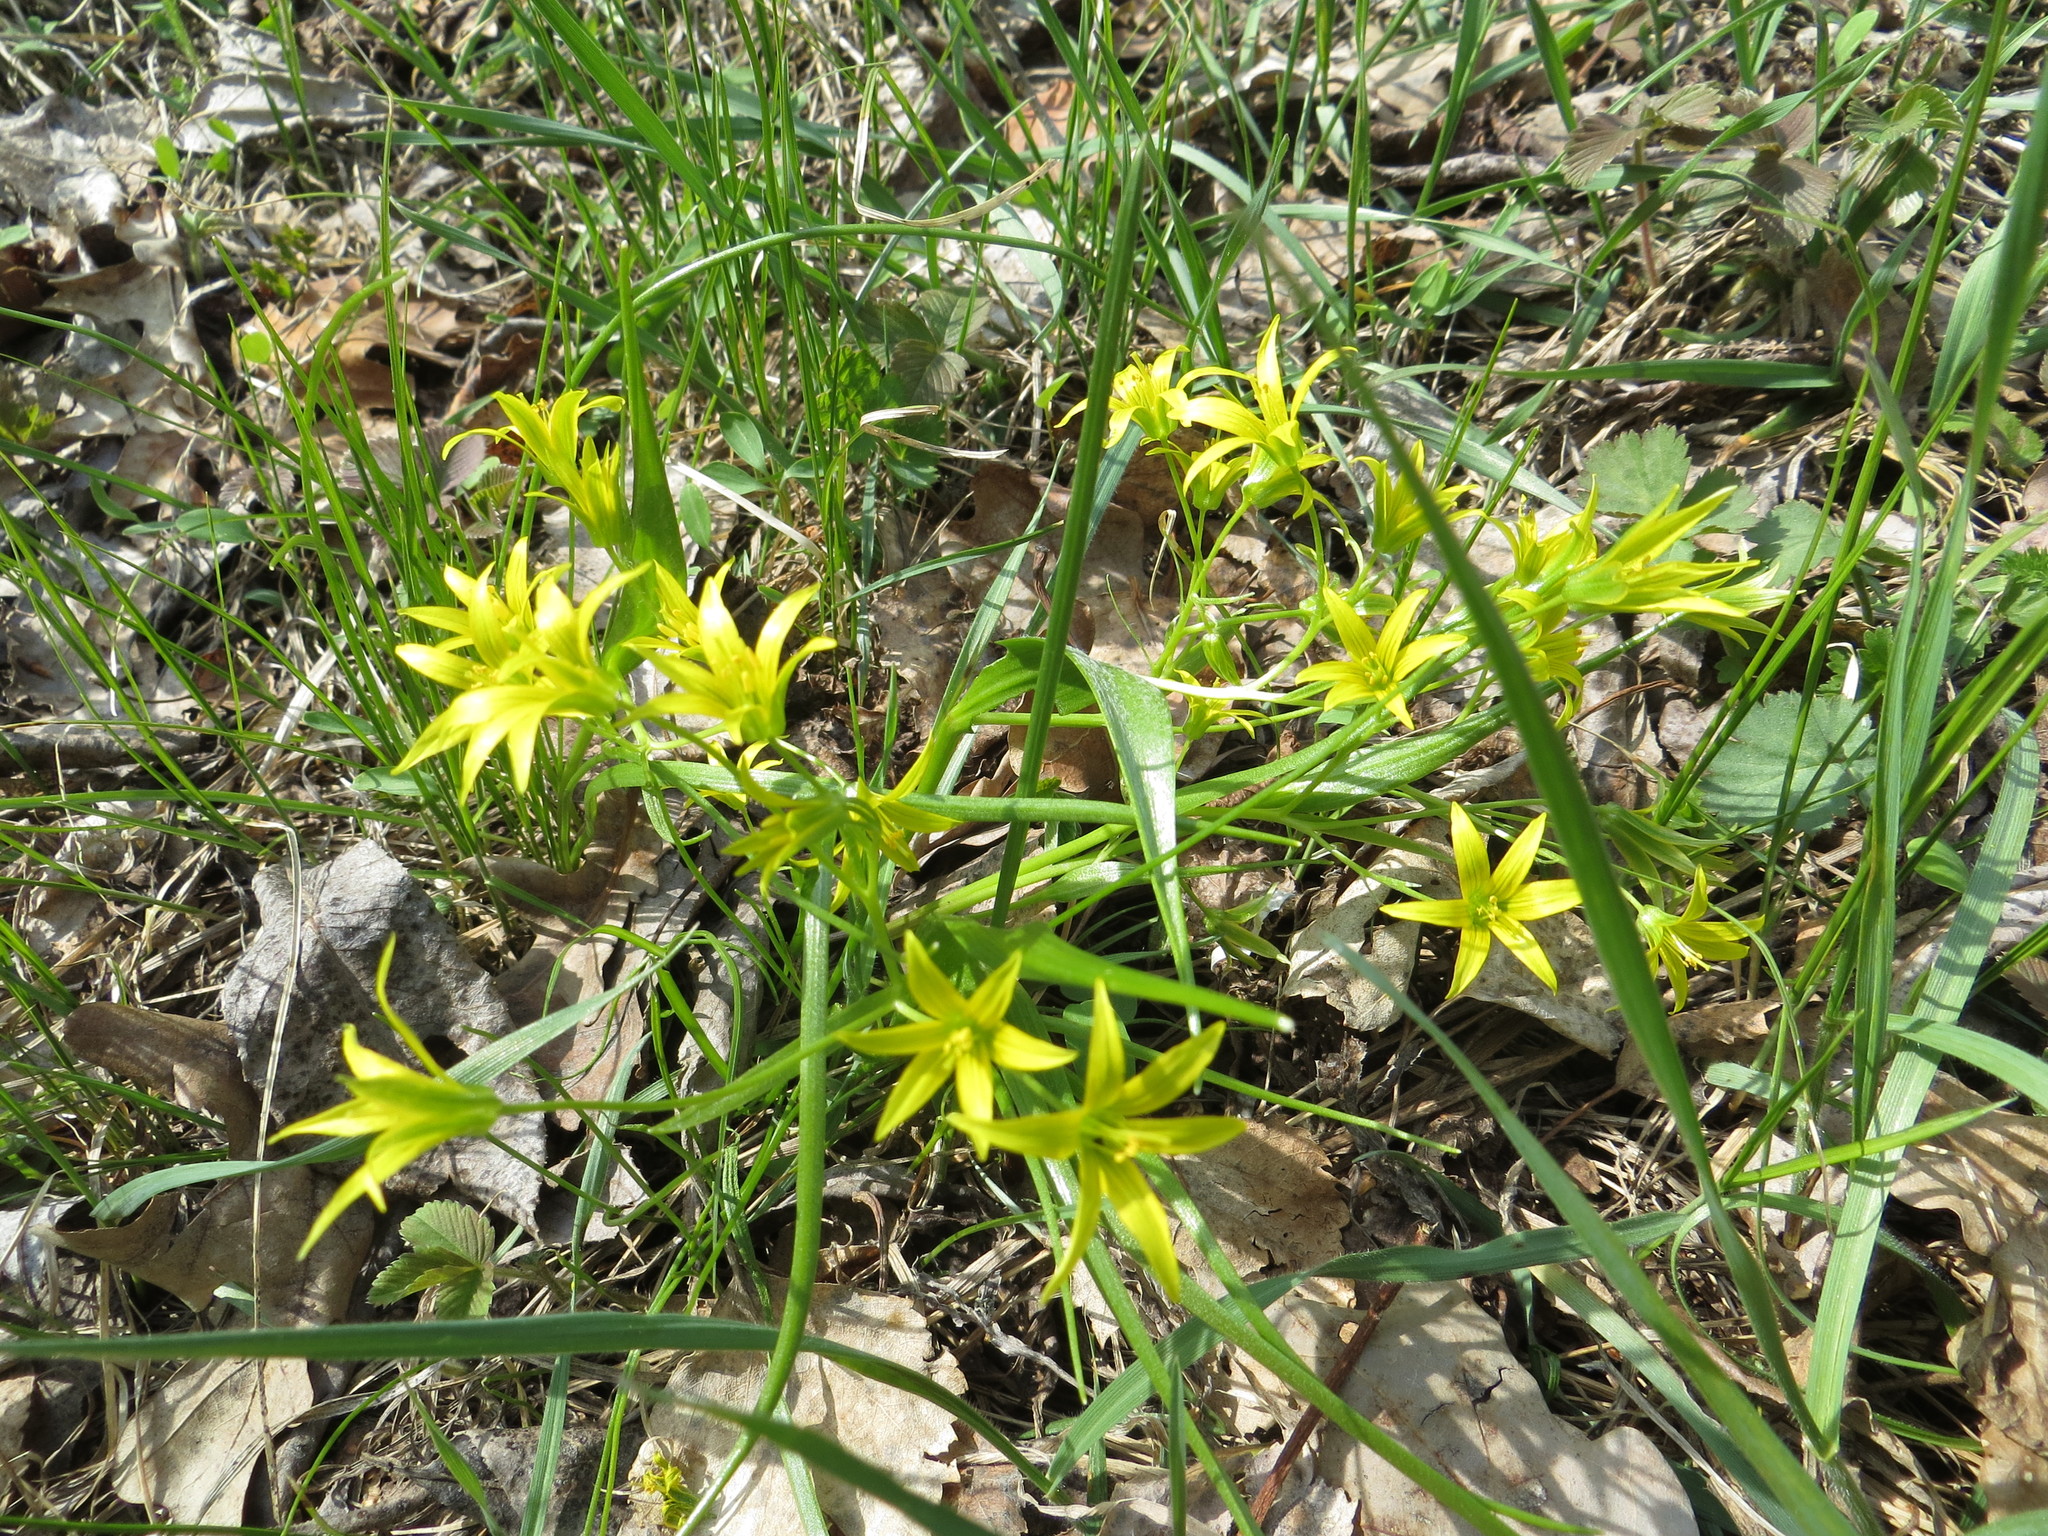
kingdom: Plantae
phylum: Tracheophyta
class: Liliopsida
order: Liliales
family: Liliaceae
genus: Gagea
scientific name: Gagea minima
